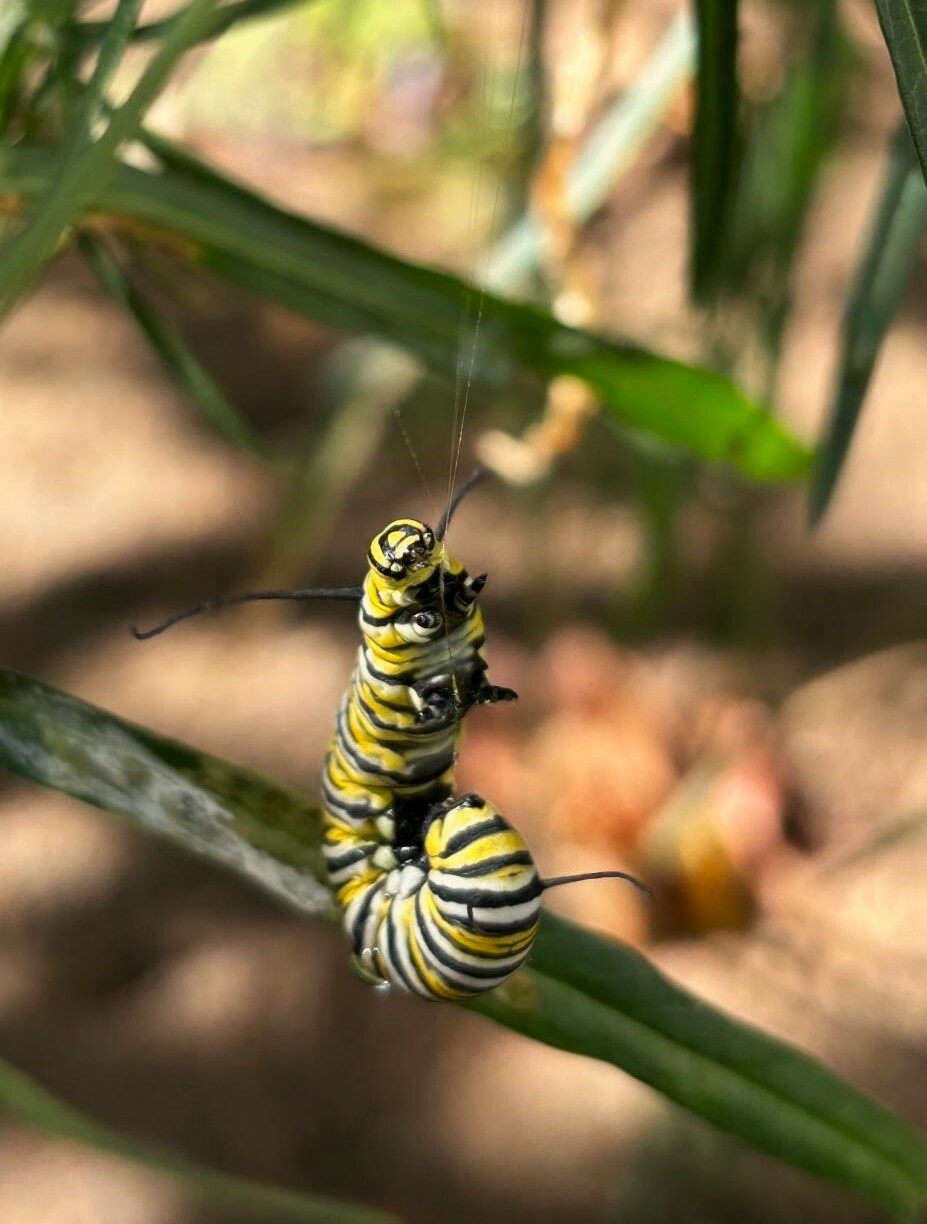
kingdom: Animalia
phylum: Arthropoda
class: Insecta
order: Lepidoptera
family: Nymphalidae
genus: Danaus
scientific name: Danaus plexippus
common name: Monarch
